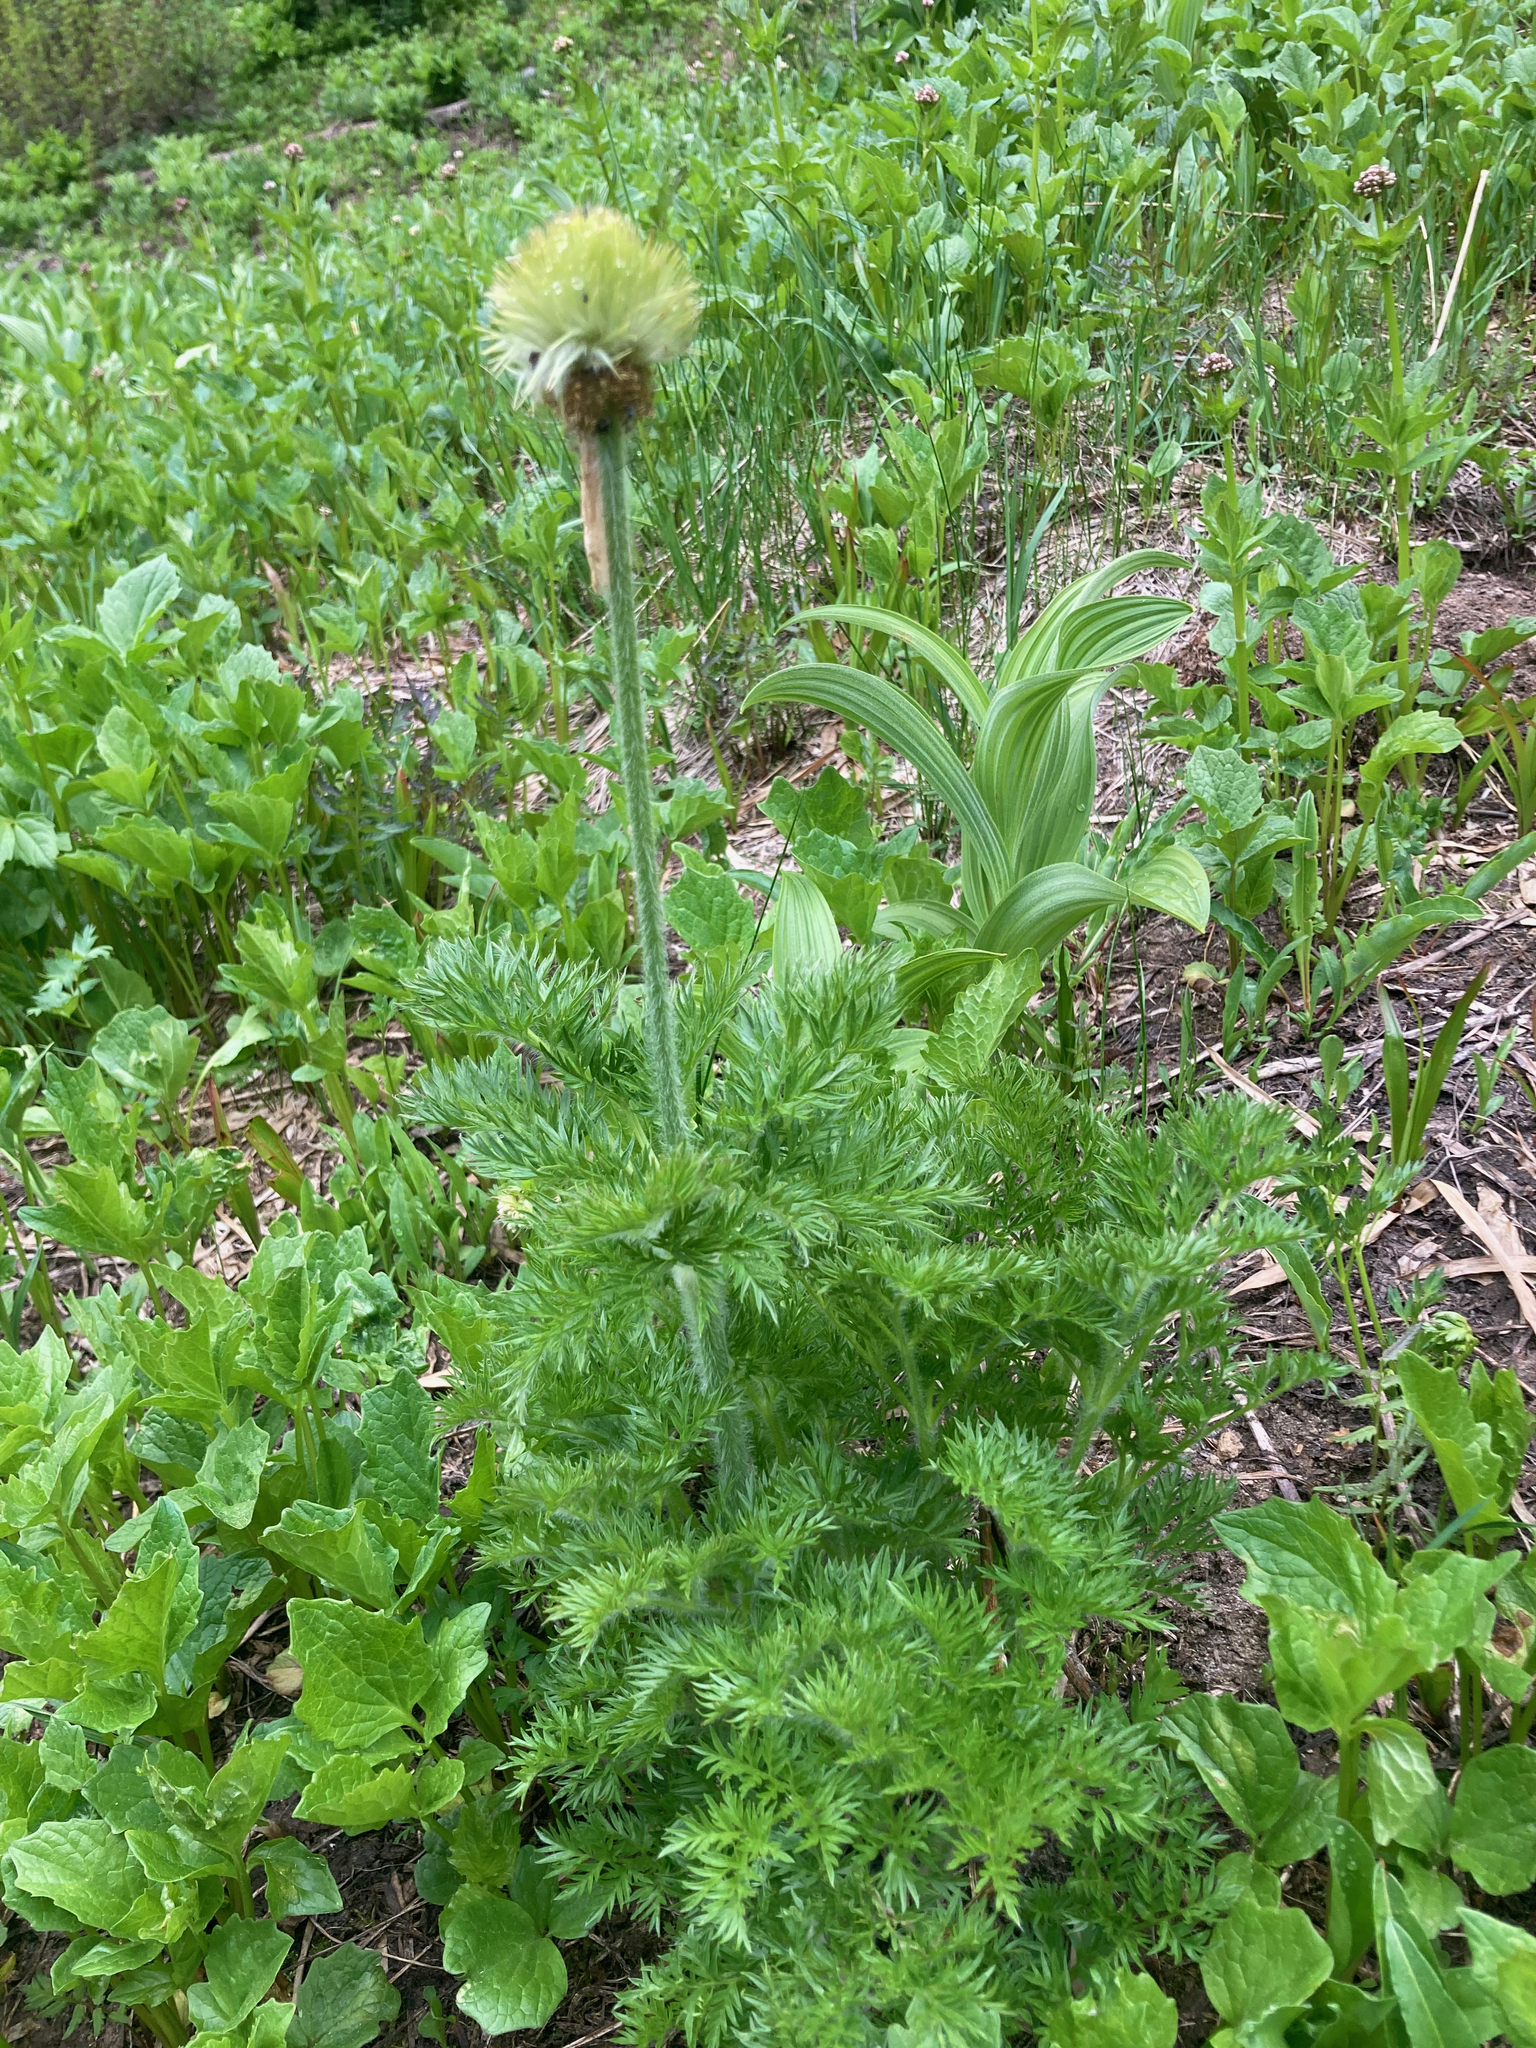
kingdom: Plantae
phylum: Tracheophyta
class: Magnoliopsida
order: Ranunculales
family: Ranunculaceae
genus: Pulsatilla
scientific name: Pulsatilla occidentalis
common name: Mountain pasqueflower
